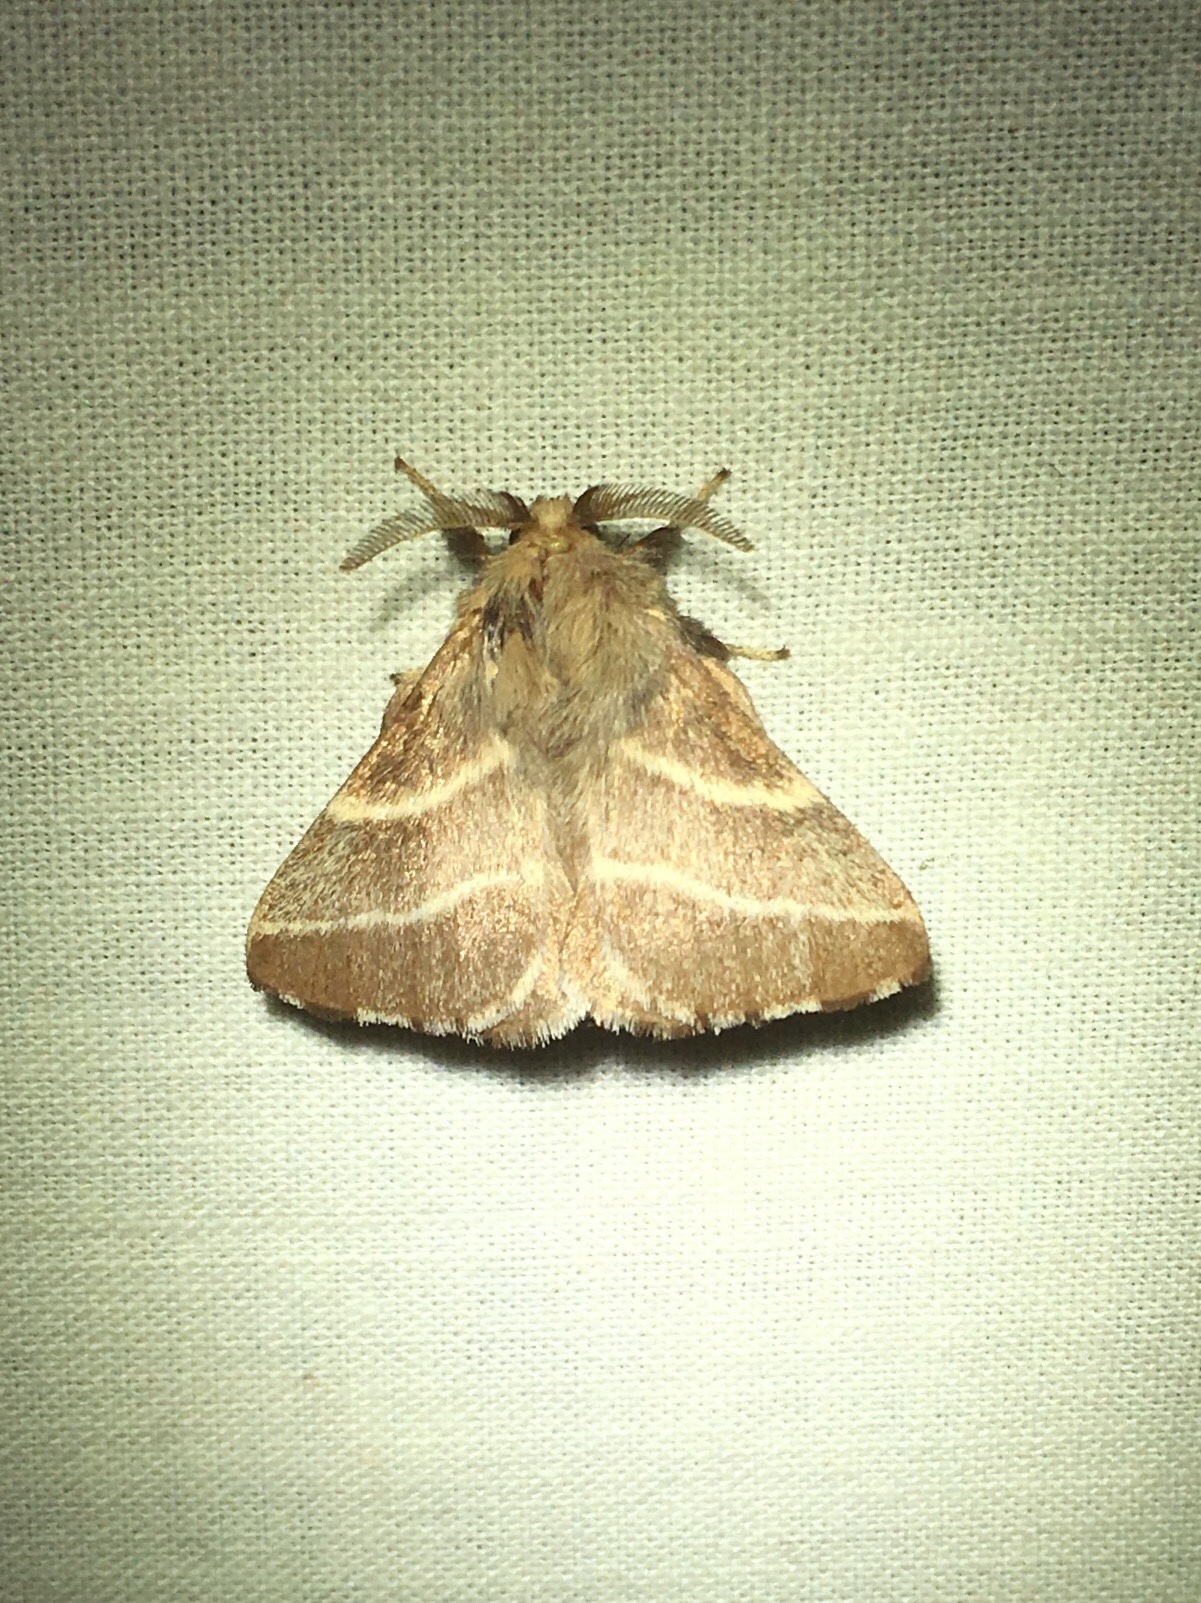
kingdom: Animalia
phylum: Arthropoda
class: Insecta
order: Lepidoptera
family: Lasiocampidae
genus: Malacosoma
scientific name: Malacosoma americana
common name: Eastern tent caterpillar moth
